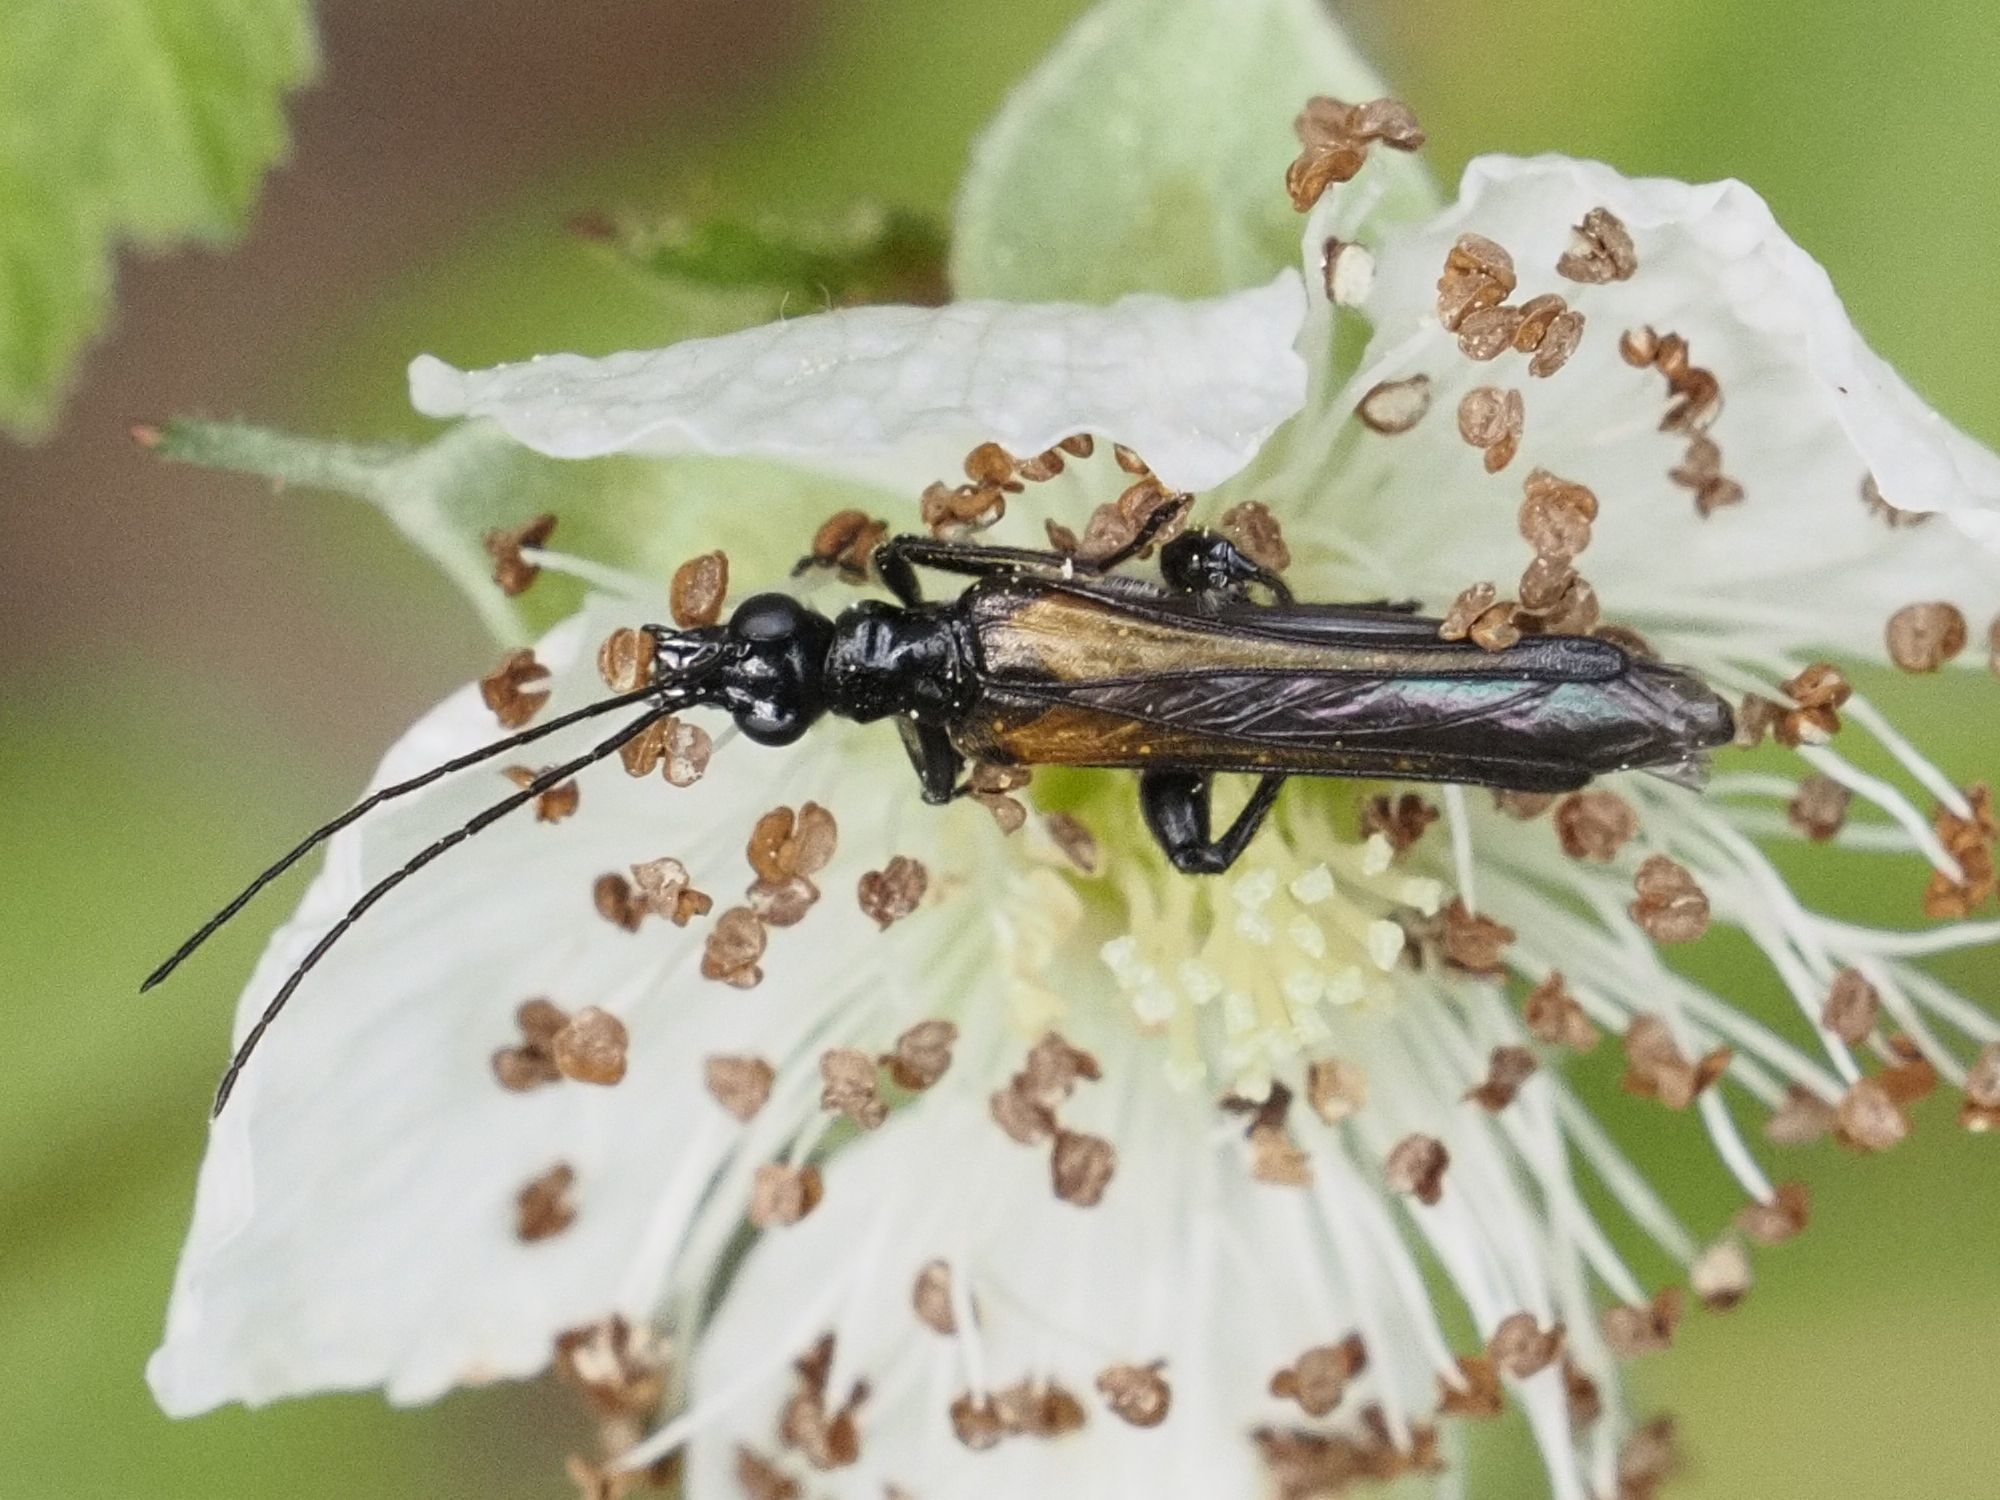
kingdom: Animalia
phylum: Arthropoda
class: Insecta
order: Coleoptera
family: Oedemeridae
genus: Oedemera
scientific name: Oedemera pthysica
